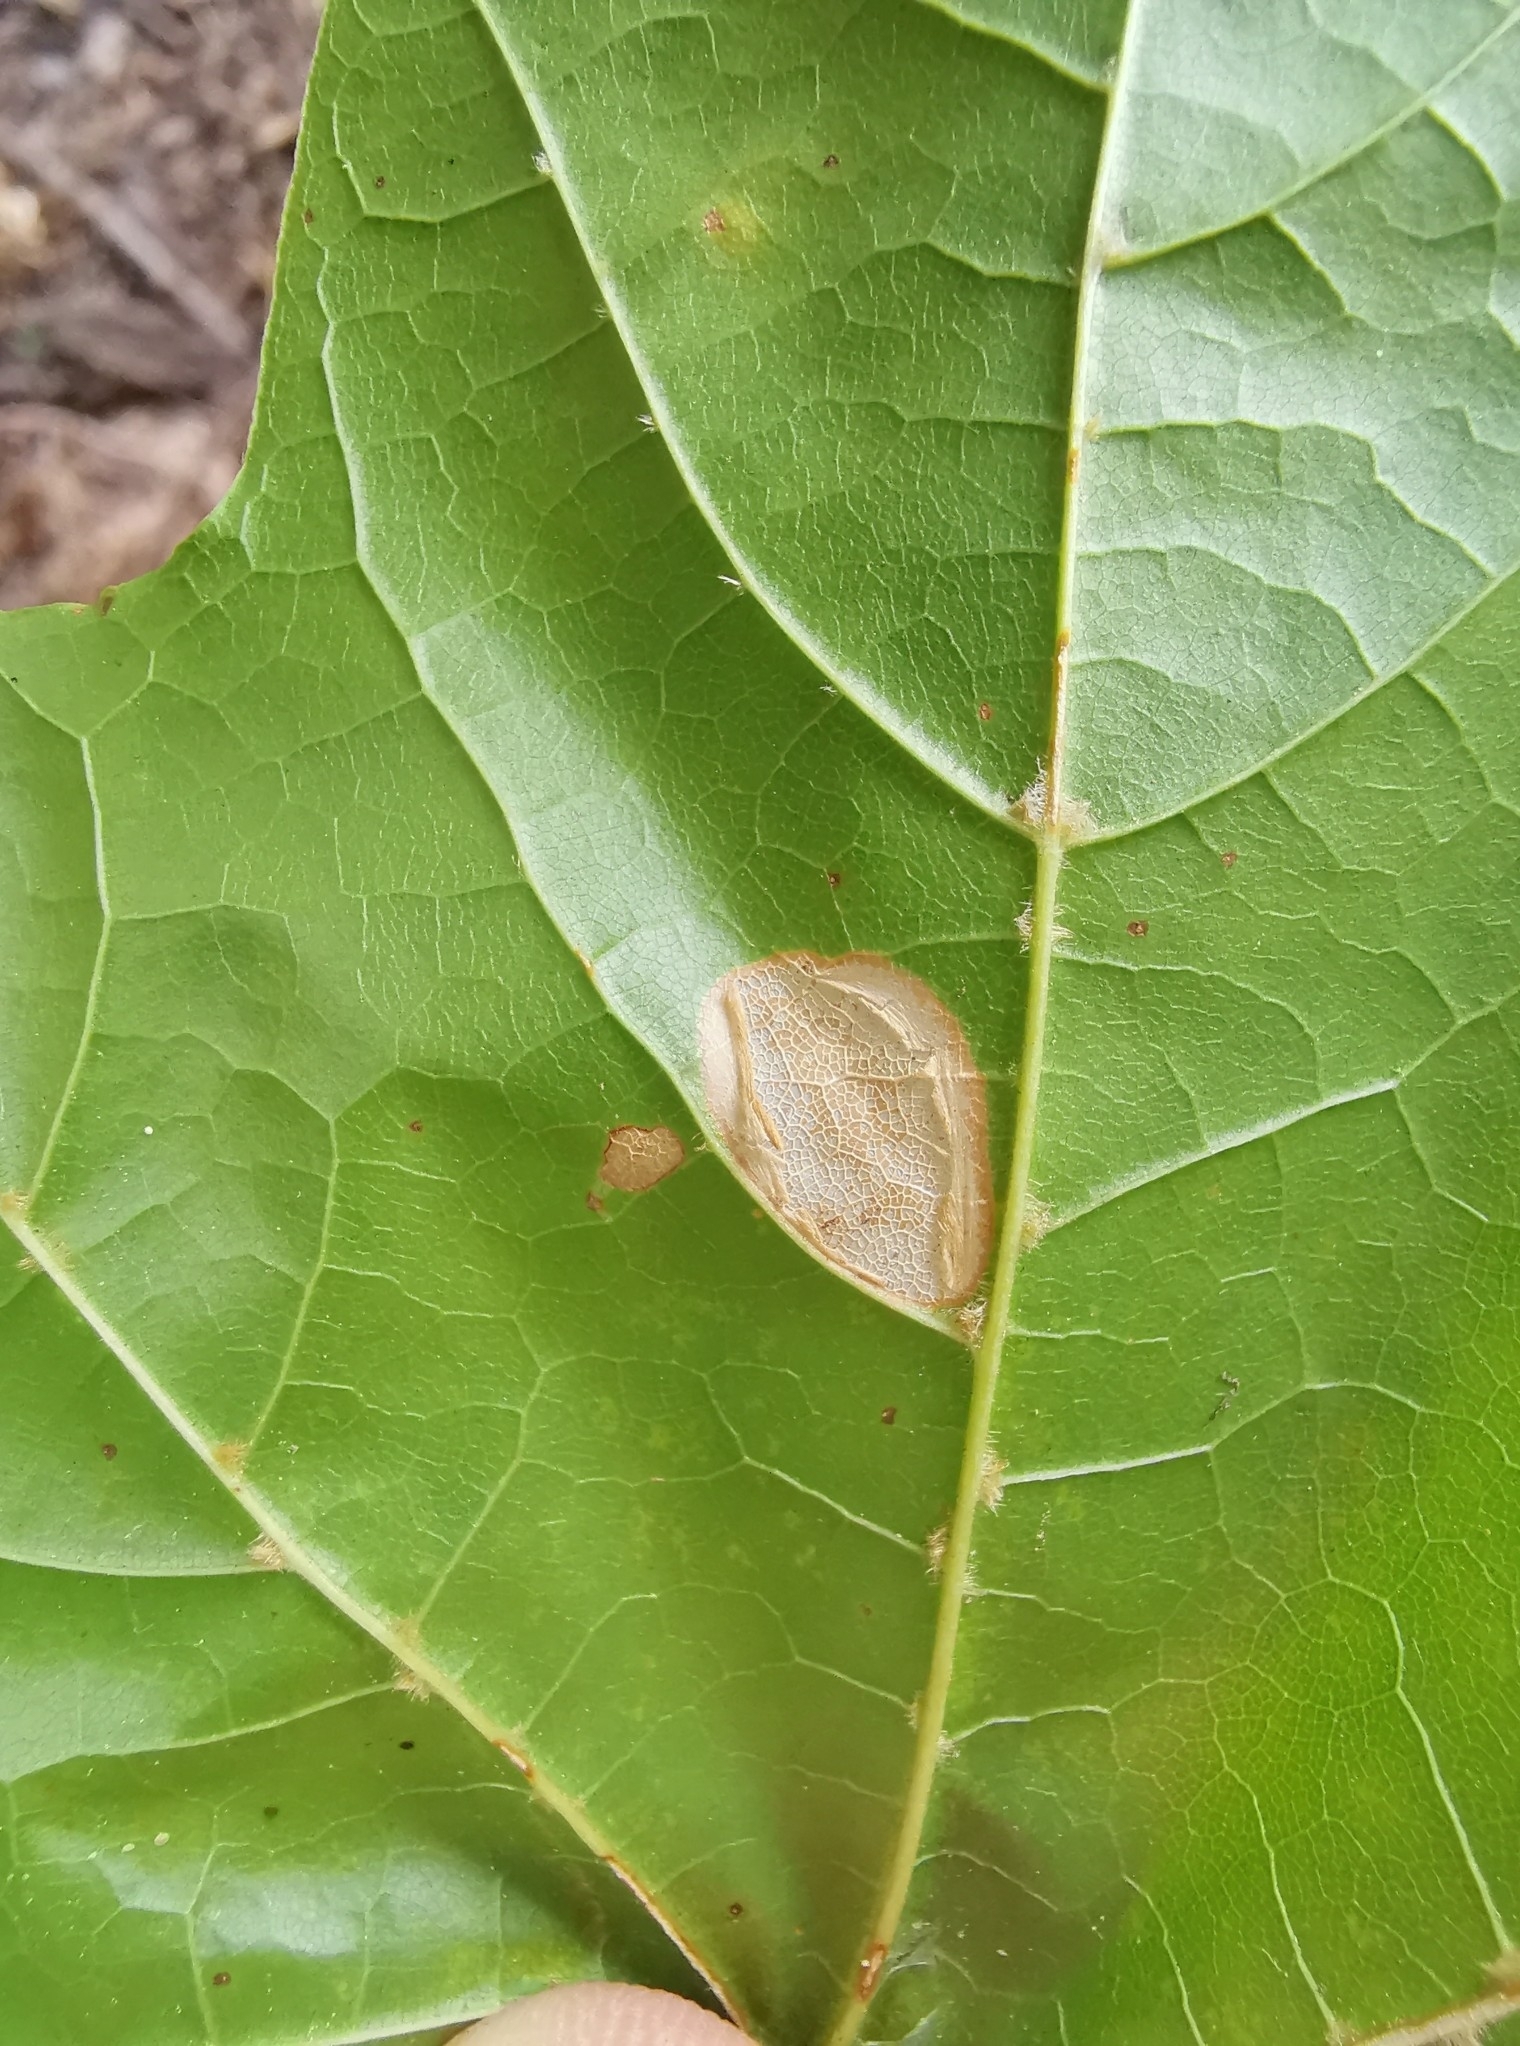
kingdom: Animalia
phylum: Arthropoda
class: Insecta
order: Lepidoptera
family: Gracillariidae
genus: Phyllonorycter
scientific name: Phyllonorycter joannisi
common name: White-bodied midget
